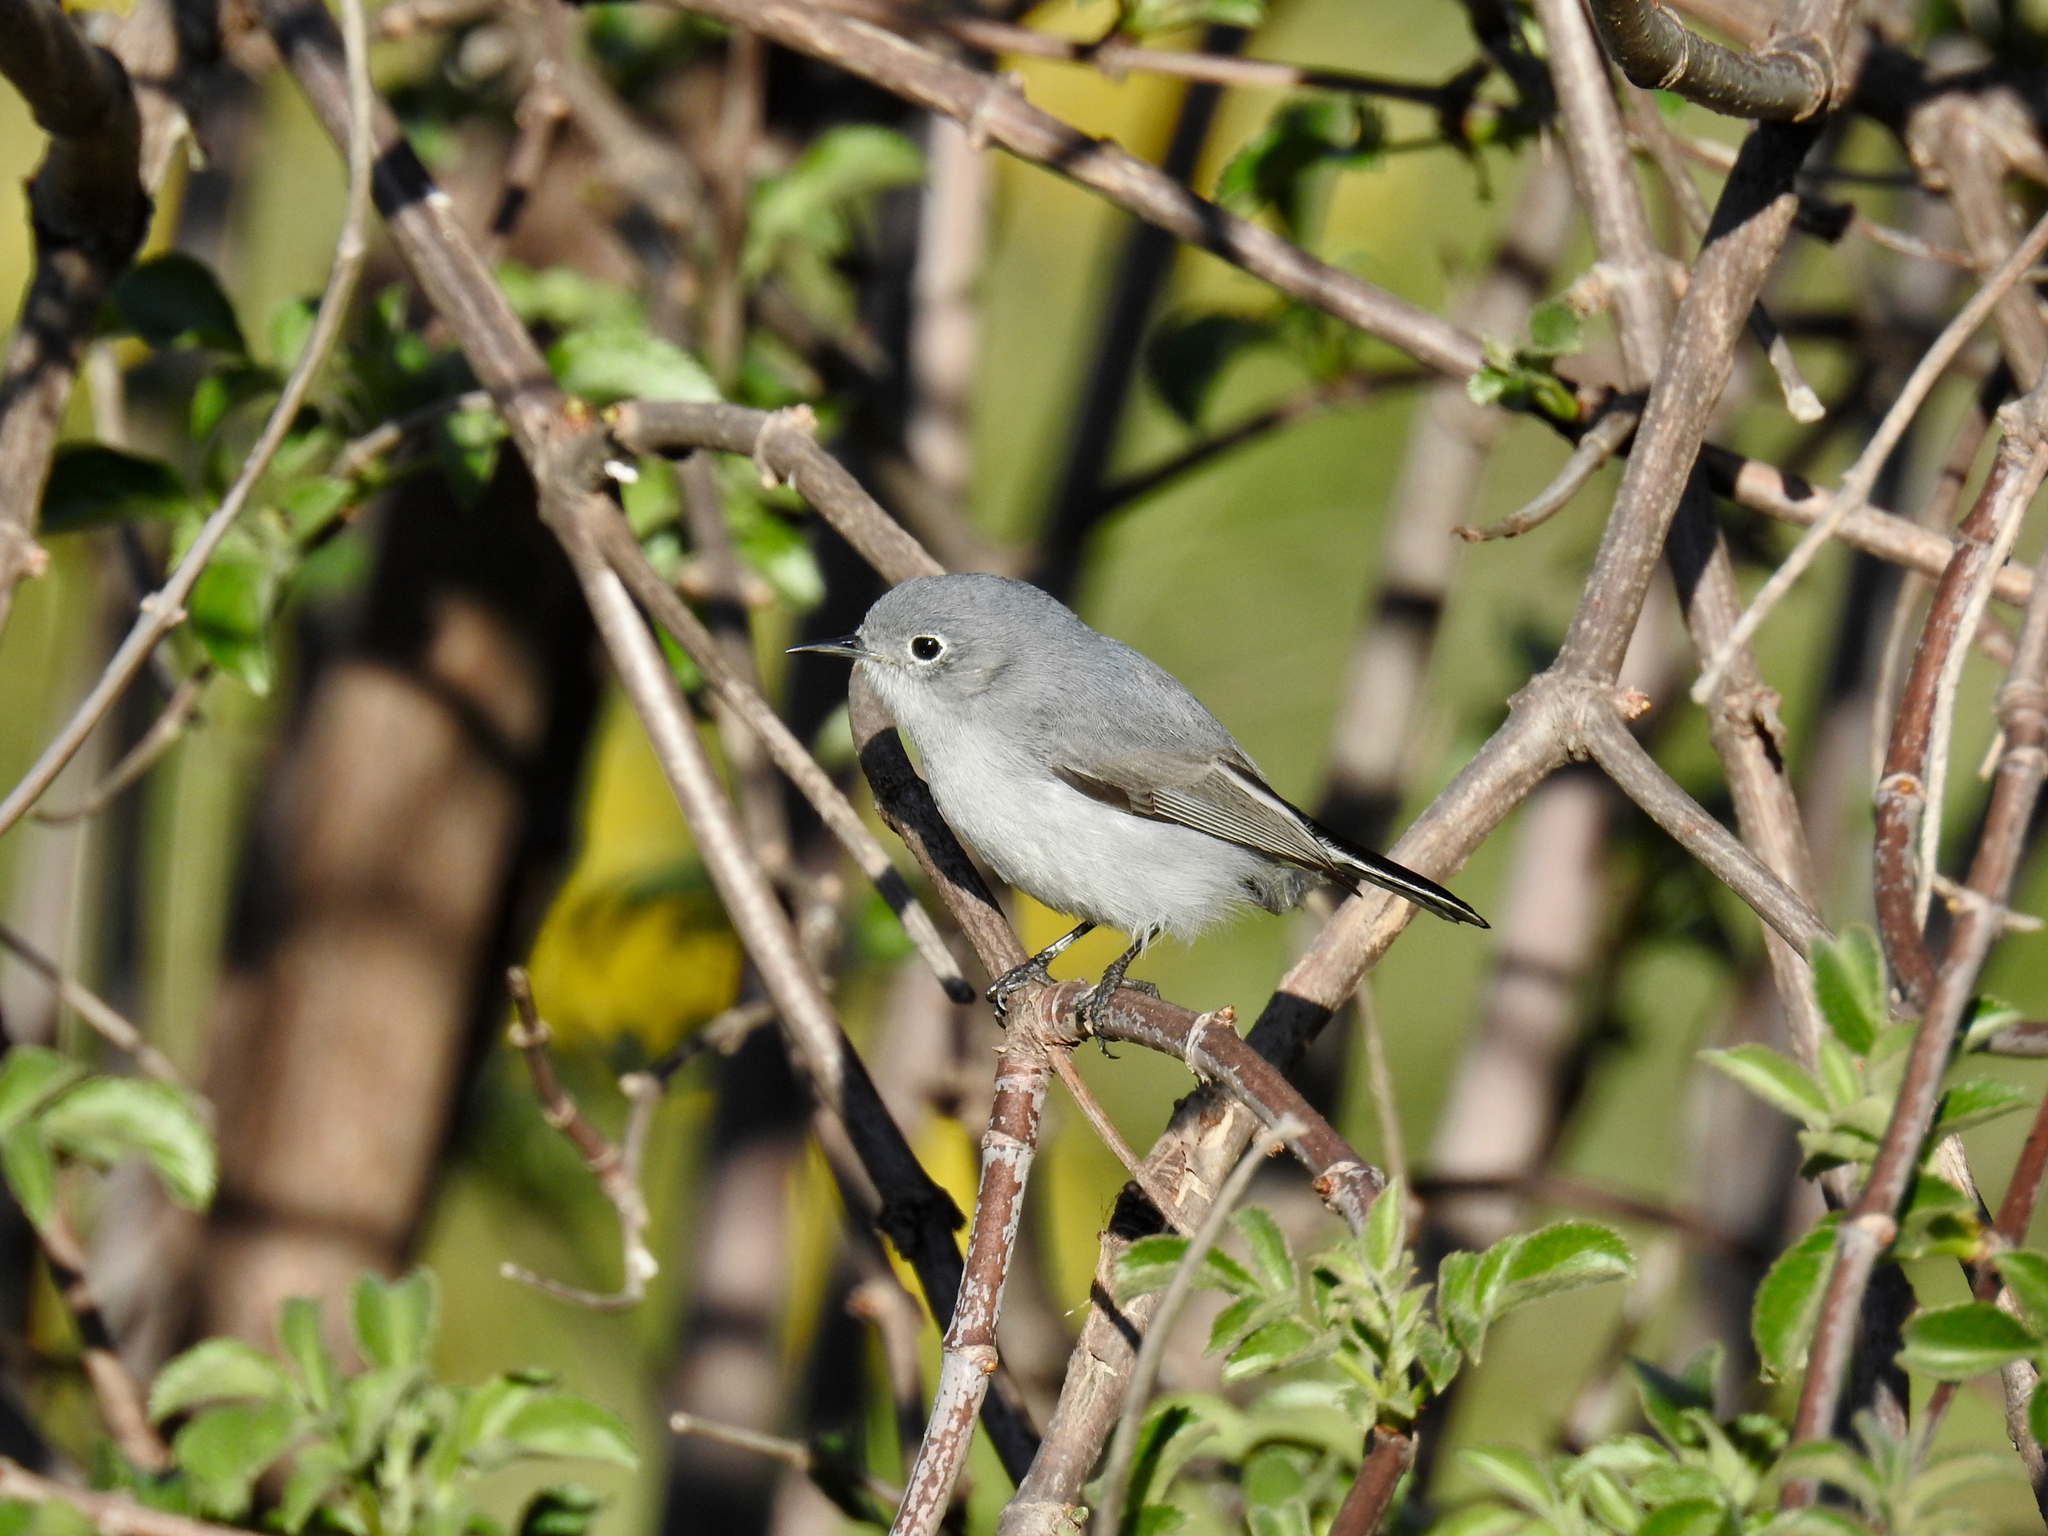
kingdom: Animalia
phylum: Chordata
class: Aves
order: Passeriformes
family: Polioptilidae
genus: Polioptila
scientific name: Polioptila caerulea
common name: Blue-gray gnatcatcher
